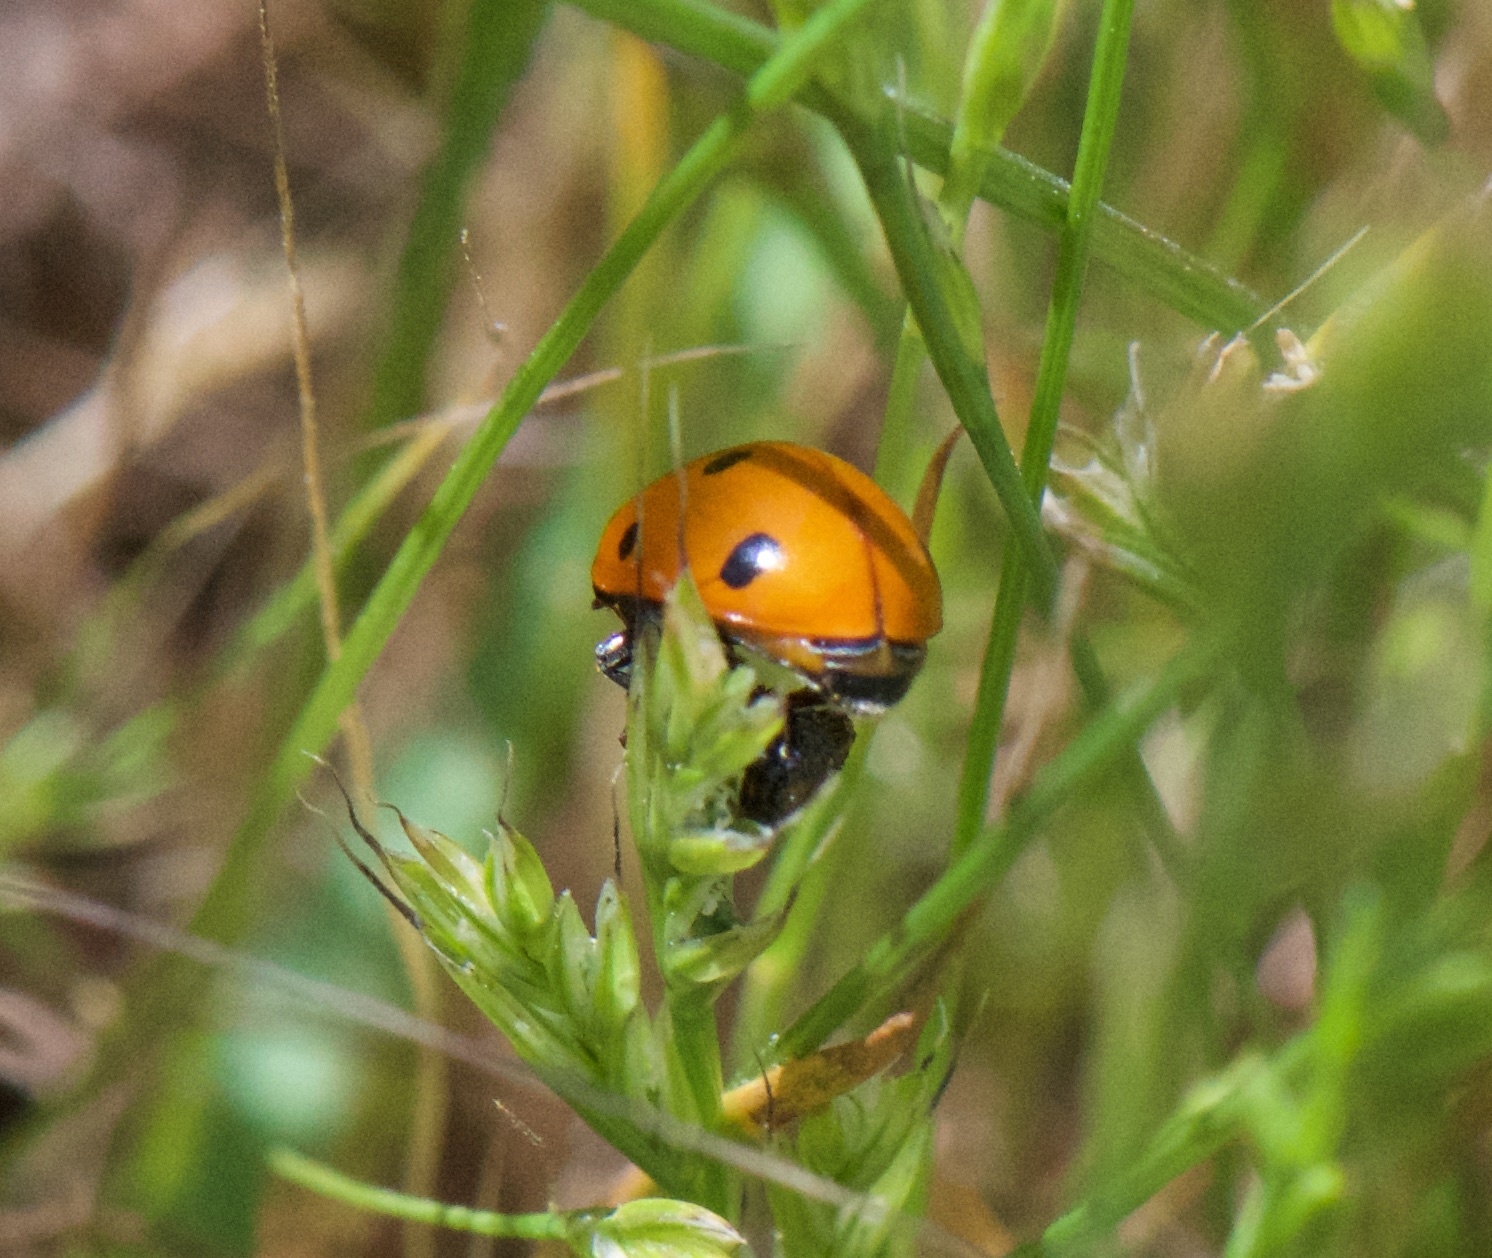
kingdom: Animalia
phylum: Arthropoda
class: Insecta
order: Coleoptera
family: Coccinellidae
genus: Coccinella
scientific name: Coccinella septempunctata
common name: Sevenspotted lady beetle
